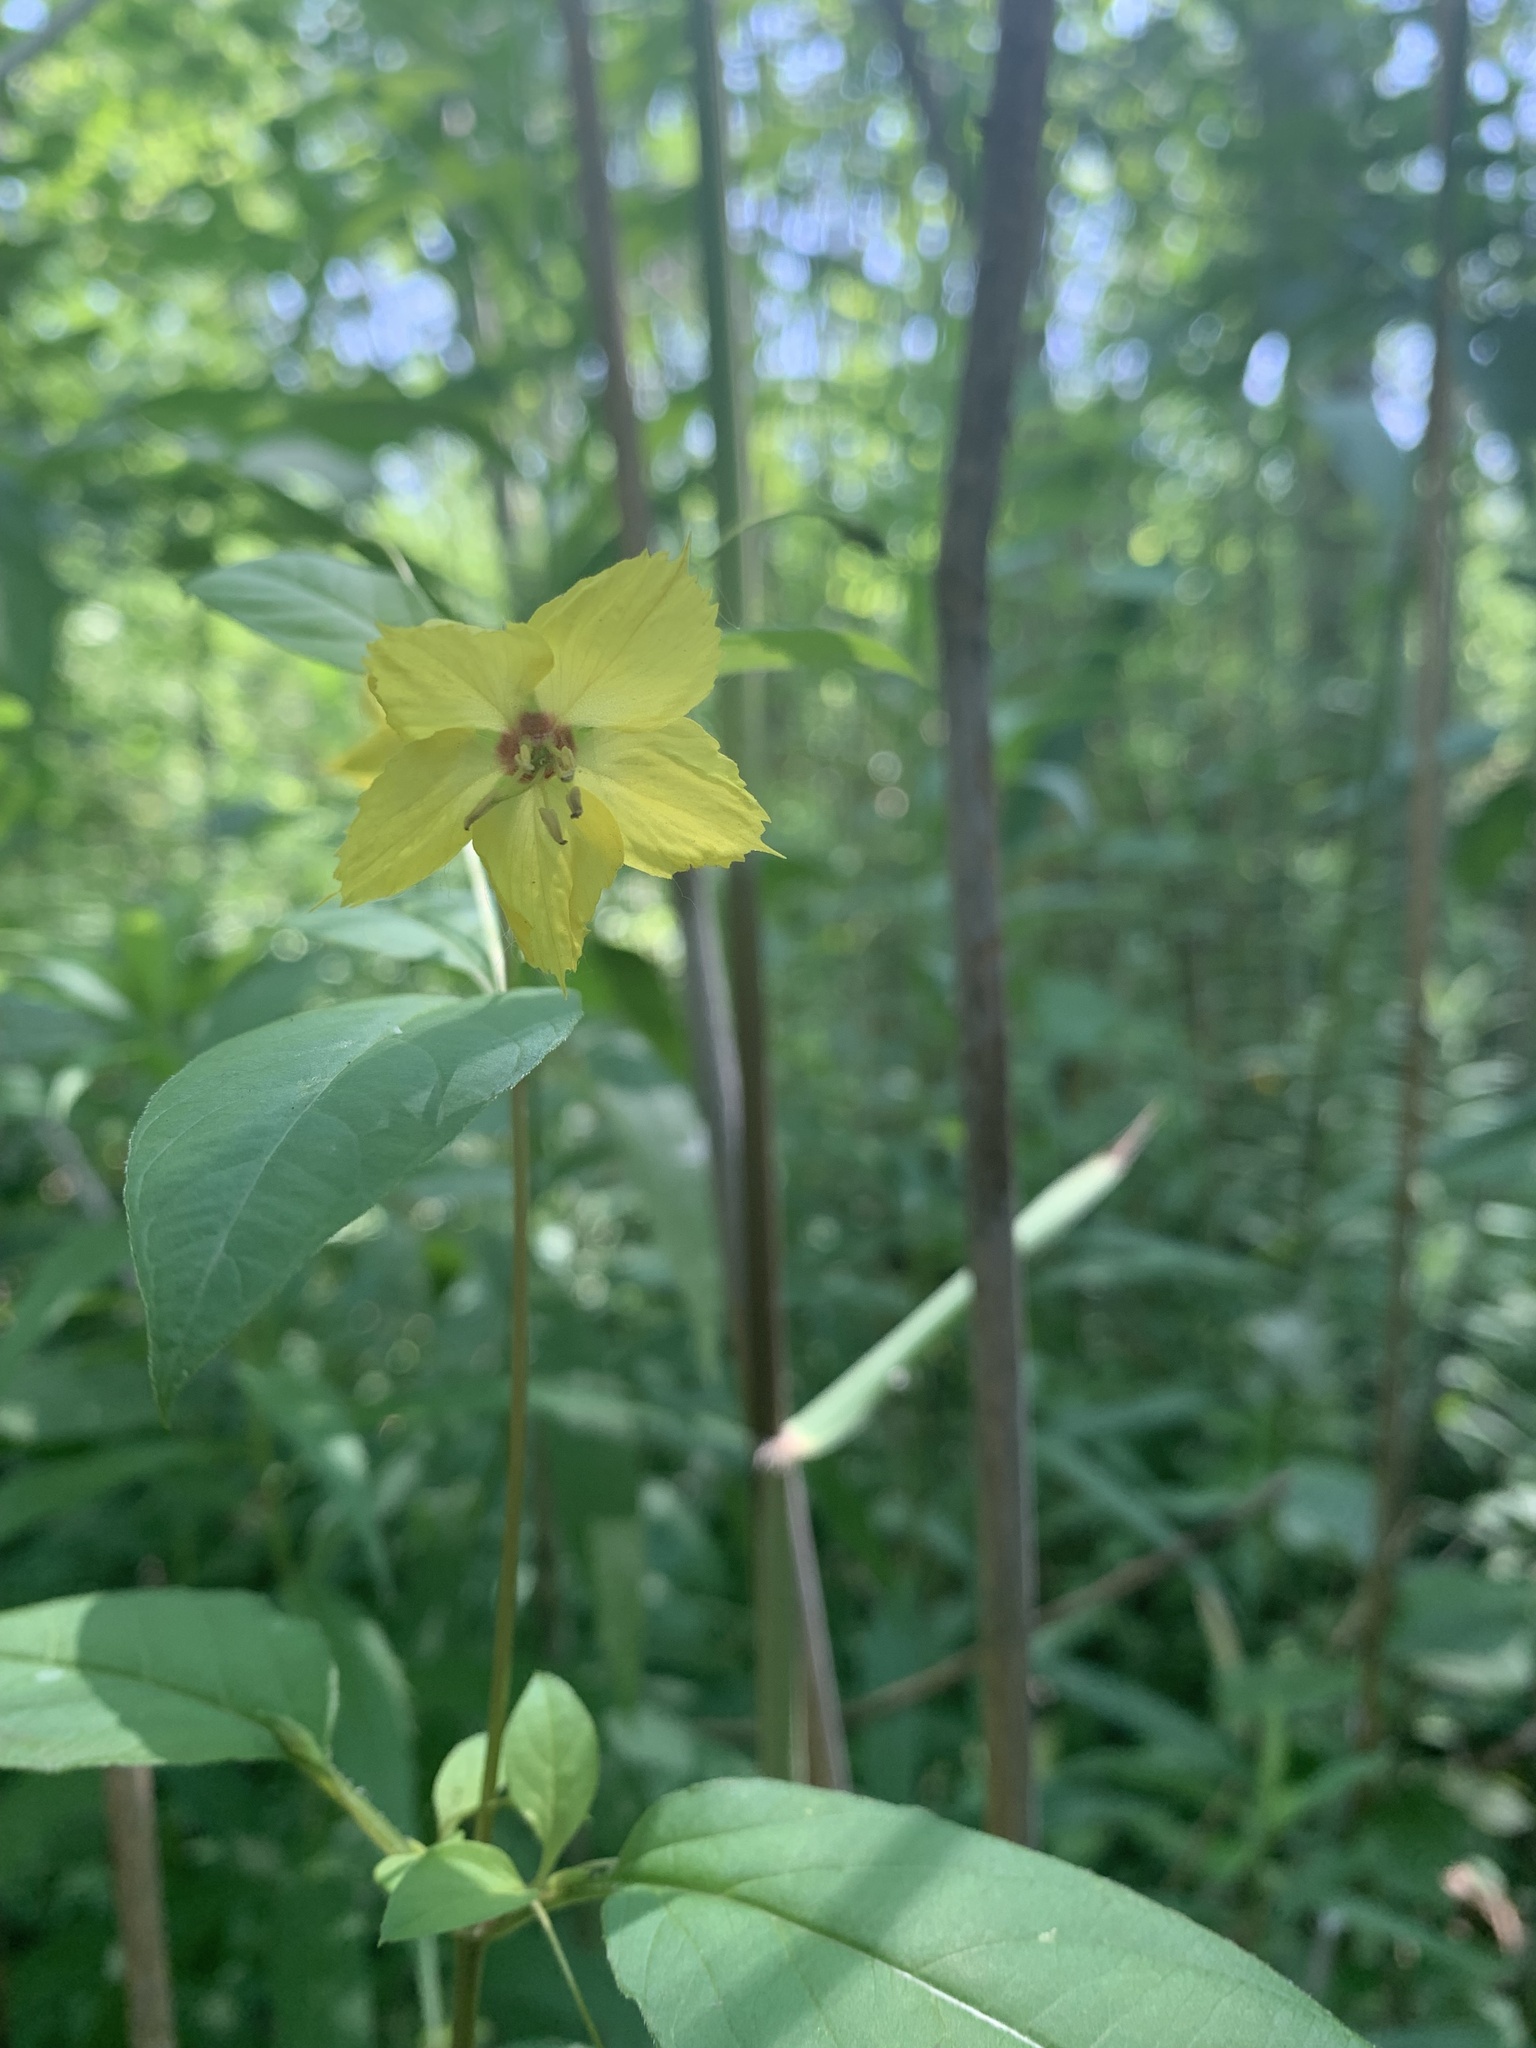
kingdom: Plantae
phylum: Tracheophyta
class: Magnoliopsida
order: Ericales
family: Primulaceae
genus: Lysimachia
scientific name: Lysimachia ciliata
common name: Fringed loosestrife
